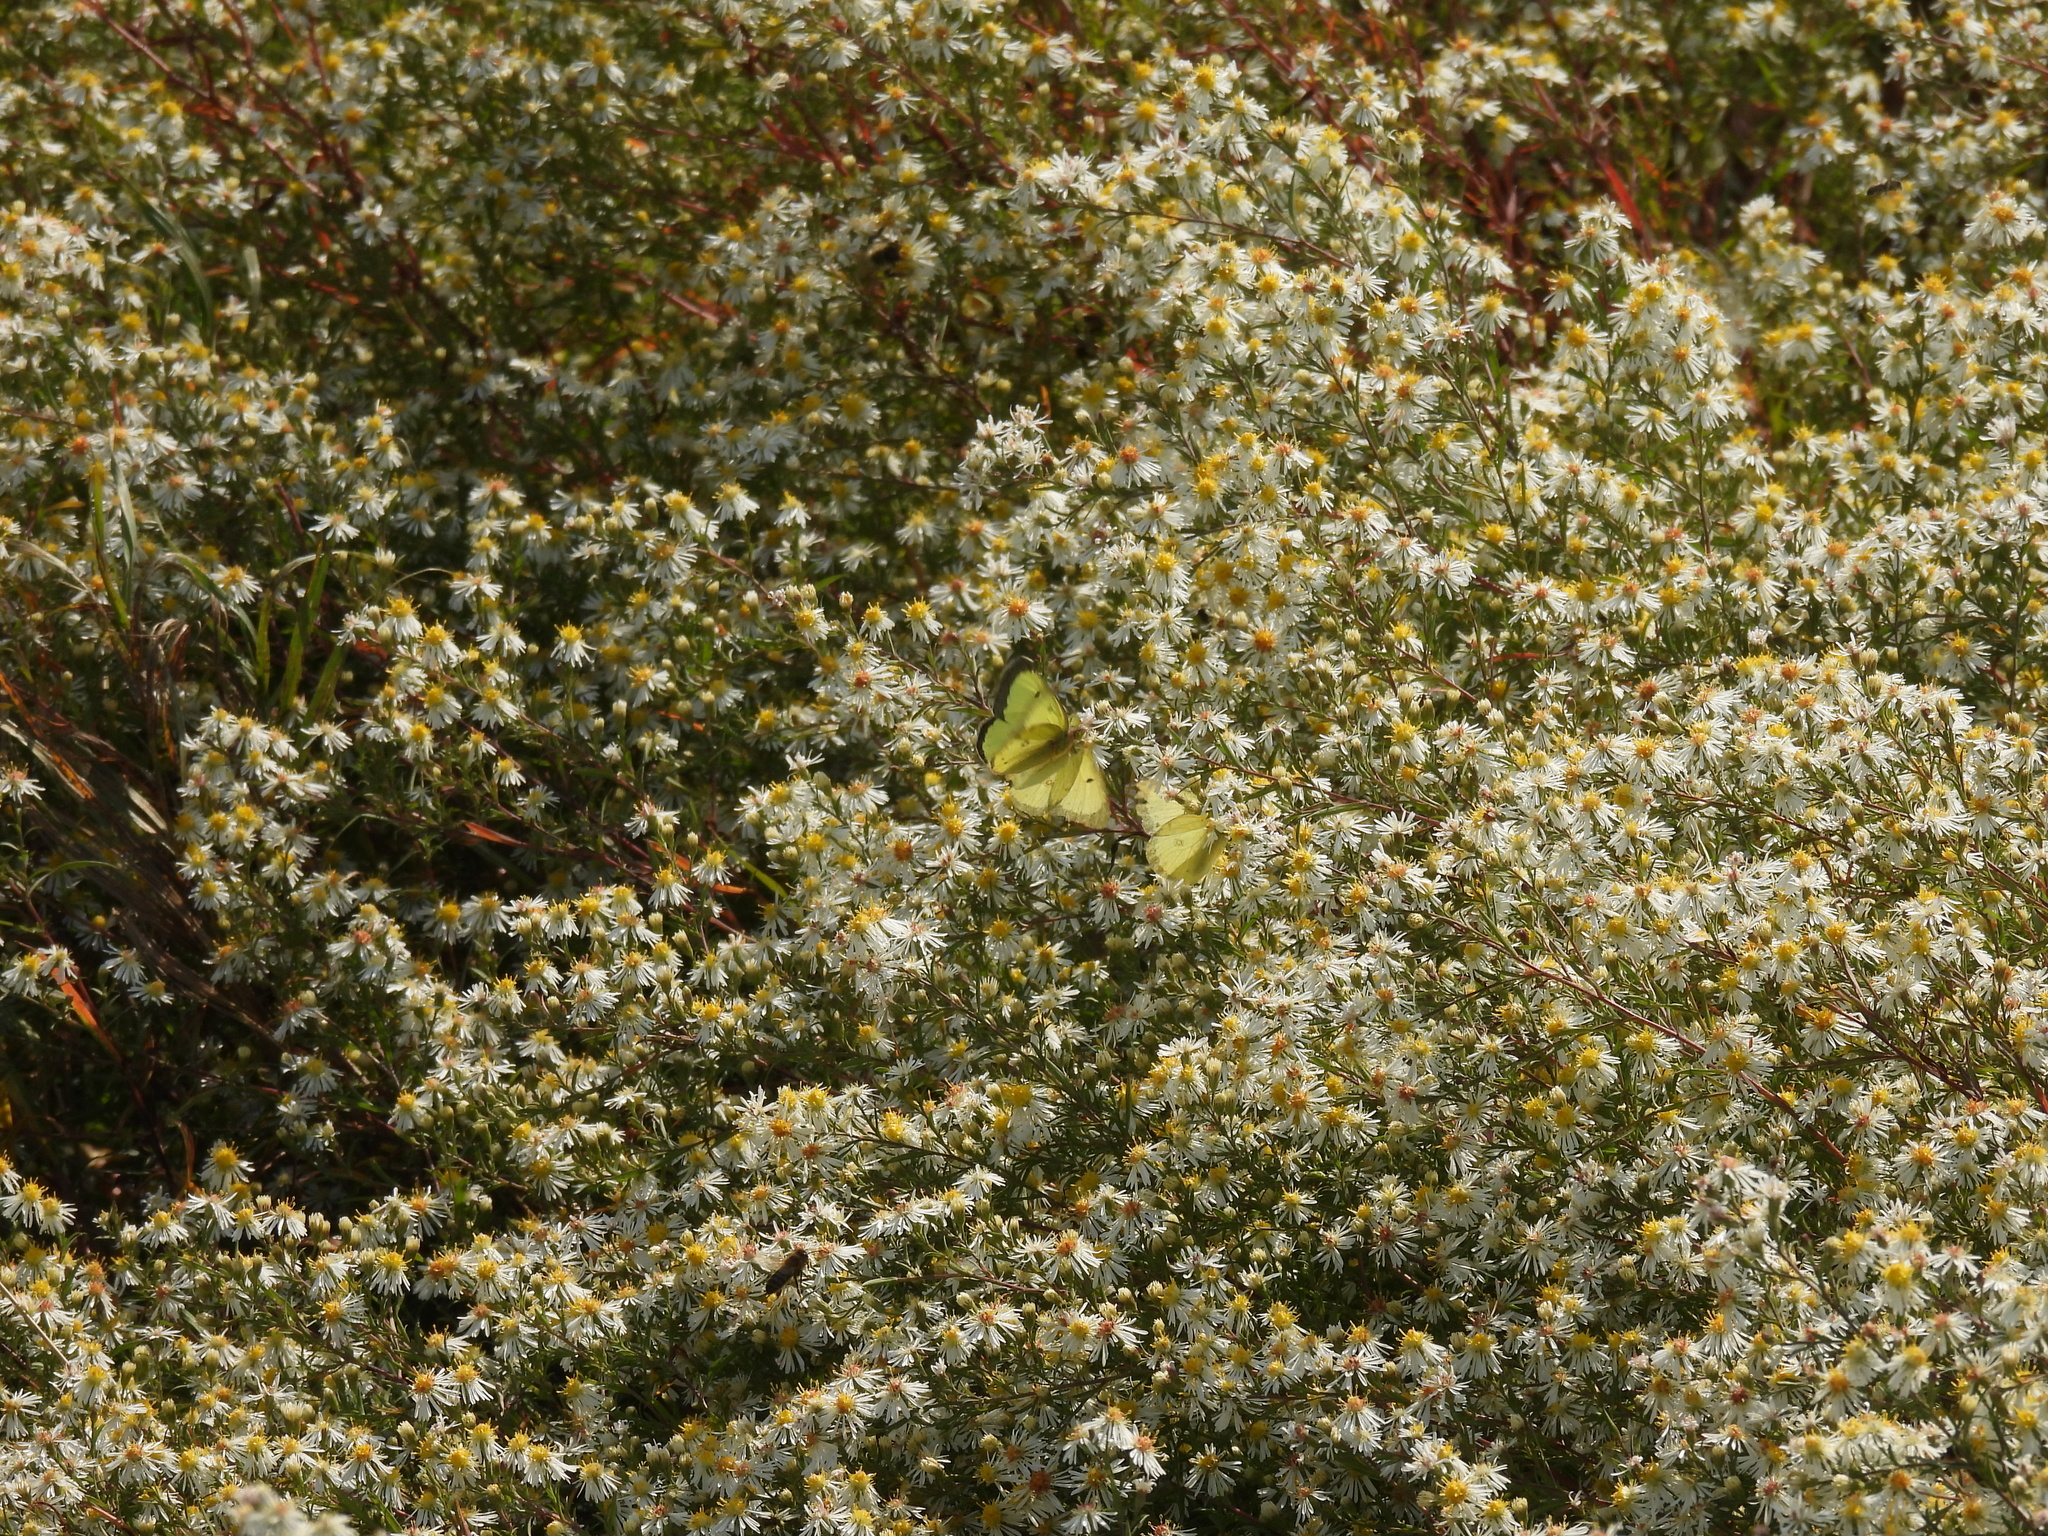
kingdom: Animalia
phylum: Arthropoda
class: Insecta
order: Lepidoptera
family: Pieridae
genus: Colias
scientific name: Colias philodice
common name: Clouded sulphur
